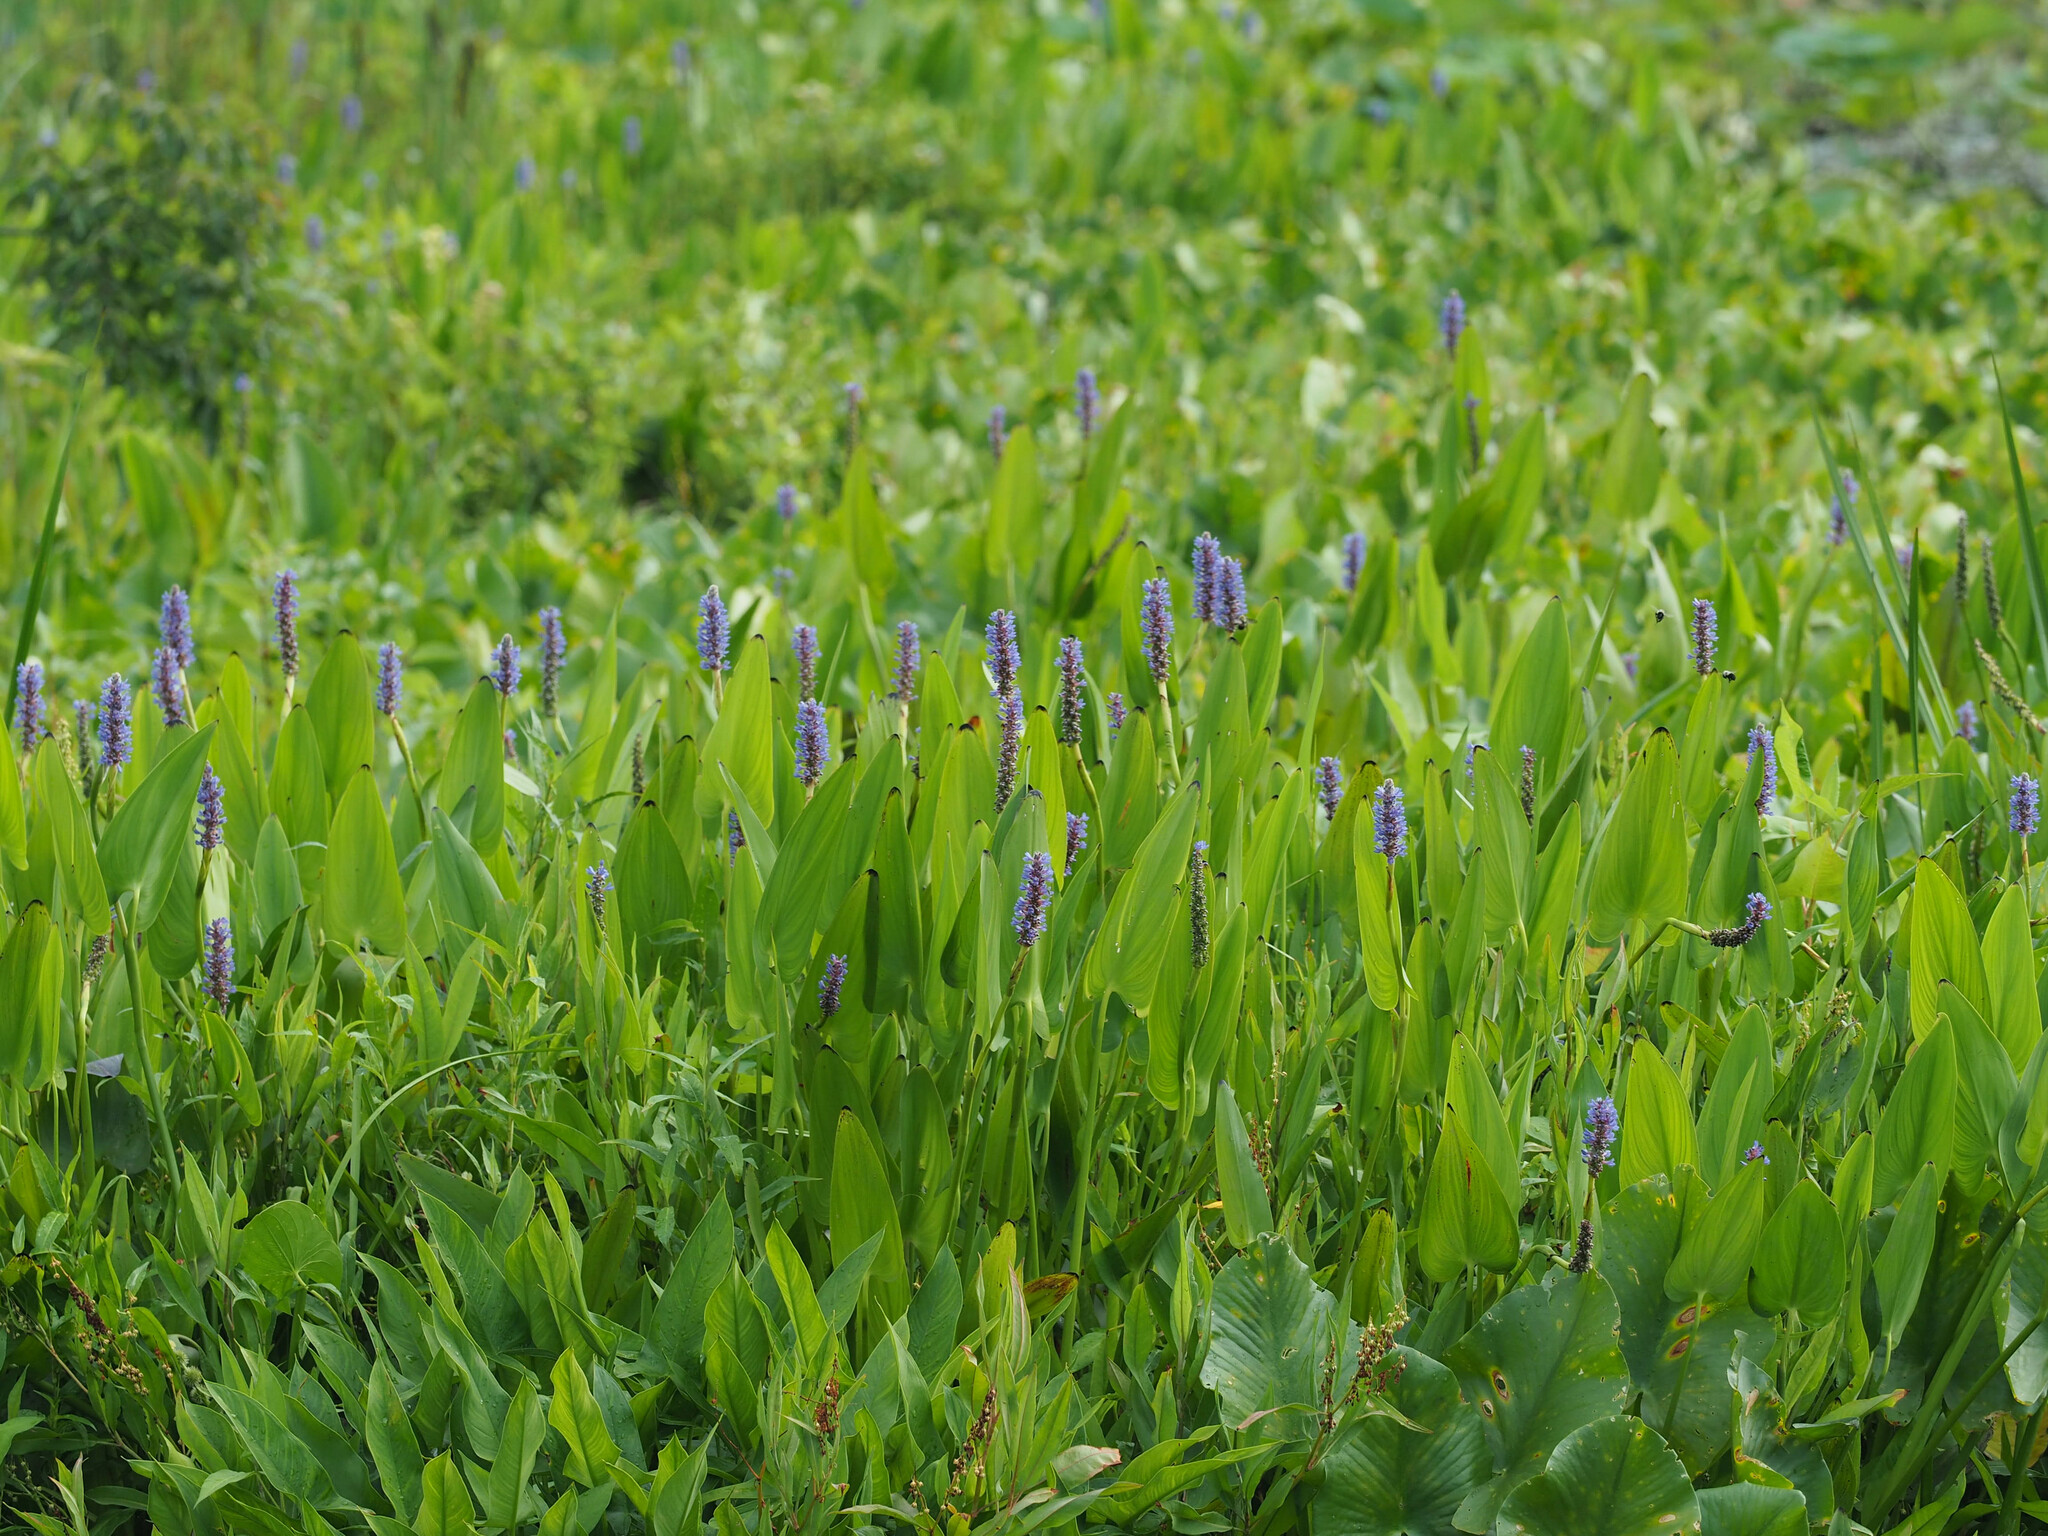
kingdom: Plantae
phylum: Tracheophyta
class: Liliopsida
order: Commelinales
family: Pontederiaceae
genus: Pontederia
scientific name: Pontederia cordata
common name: Pickerelweed
